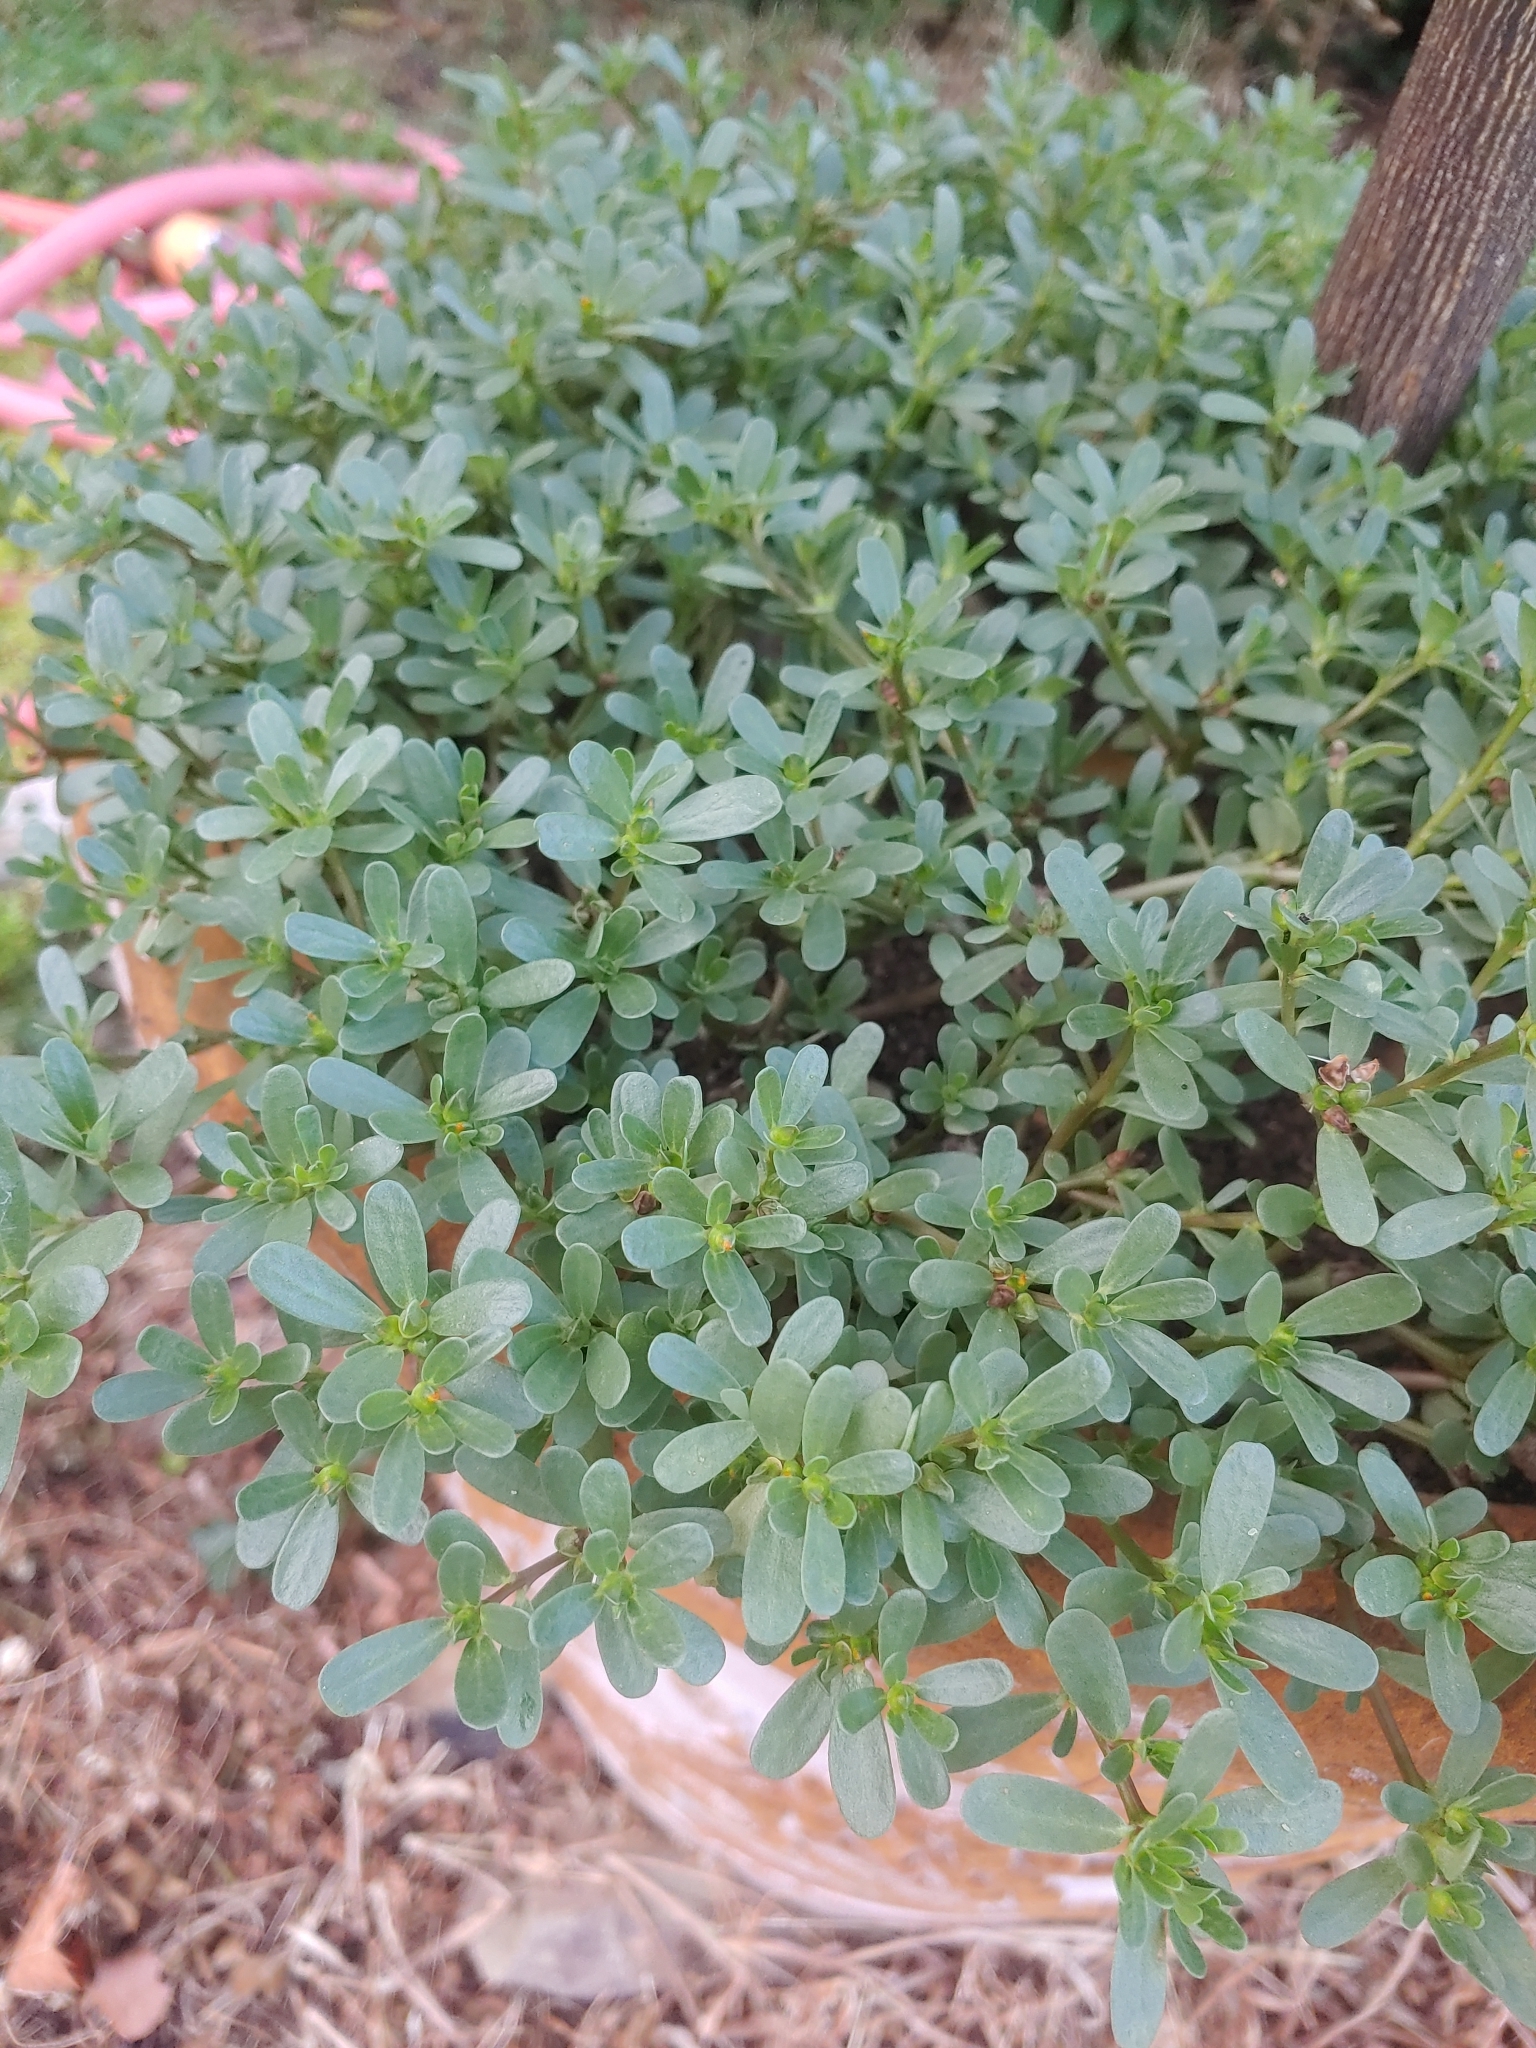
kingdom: Plantae
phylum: Tracheophyta
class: Magnoliopsida
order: Caryophyllales
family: Portulacaceae
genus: Portulaca
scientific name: Portulaca oleracea
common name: Common purslane
